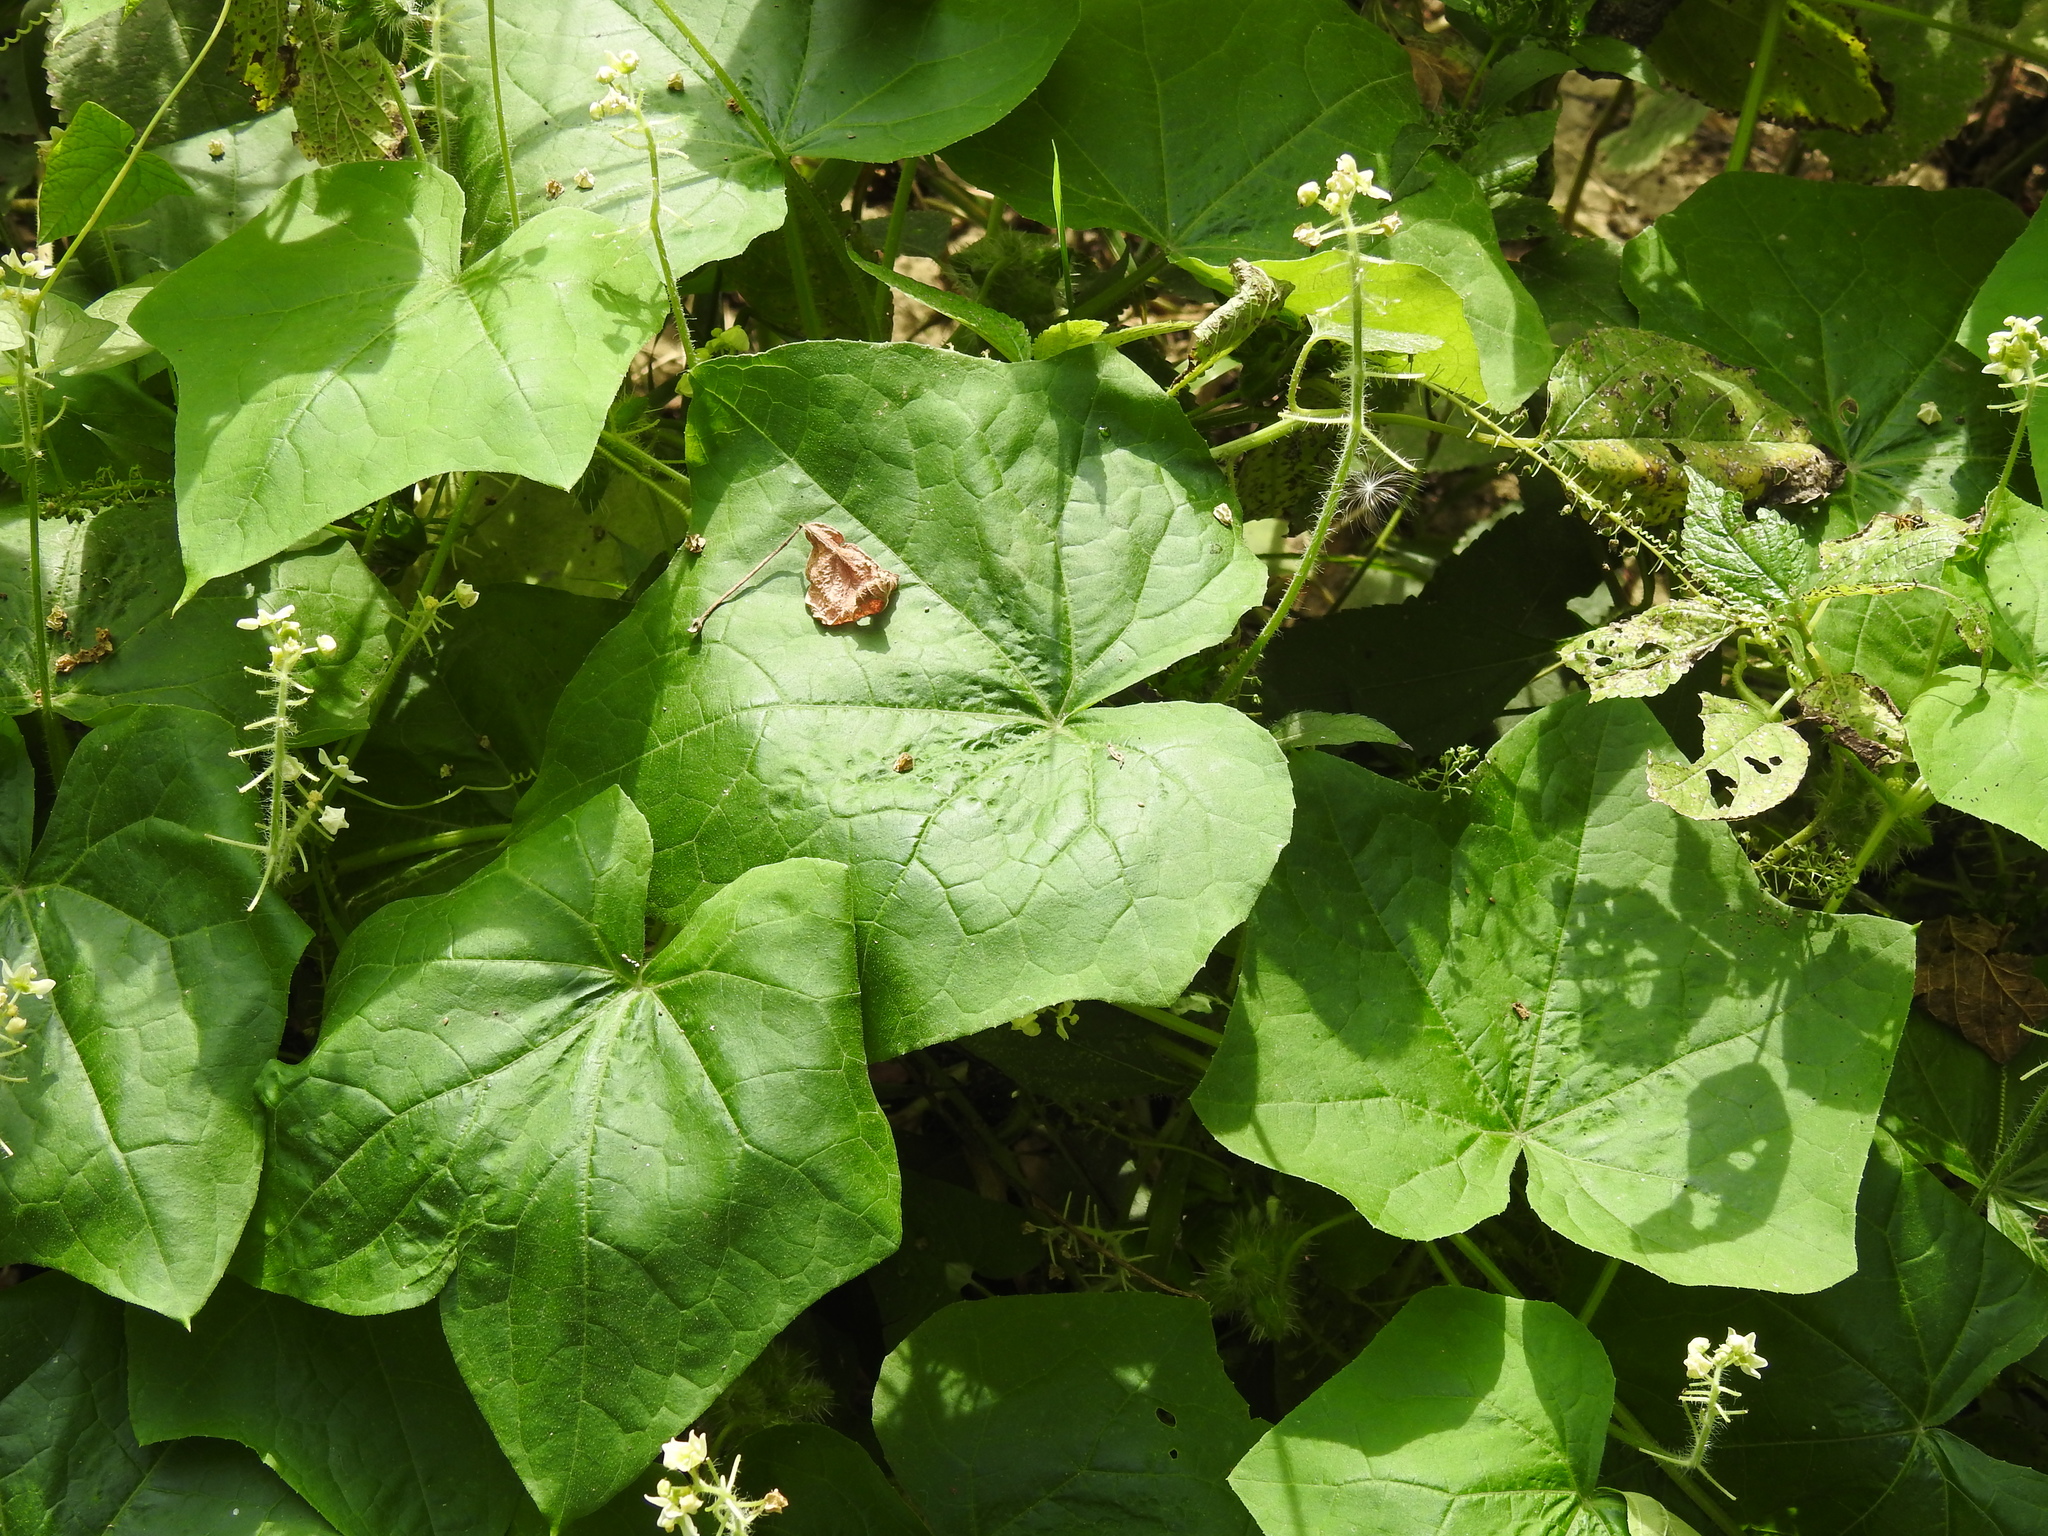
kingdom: Plantae
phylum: Tracheophyta
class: Magnoliopsida
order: Cucurbitales
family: Cucurbitaceae
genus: Sicyos
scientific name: Sicyos angulatus
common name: Angled burr cucumber
